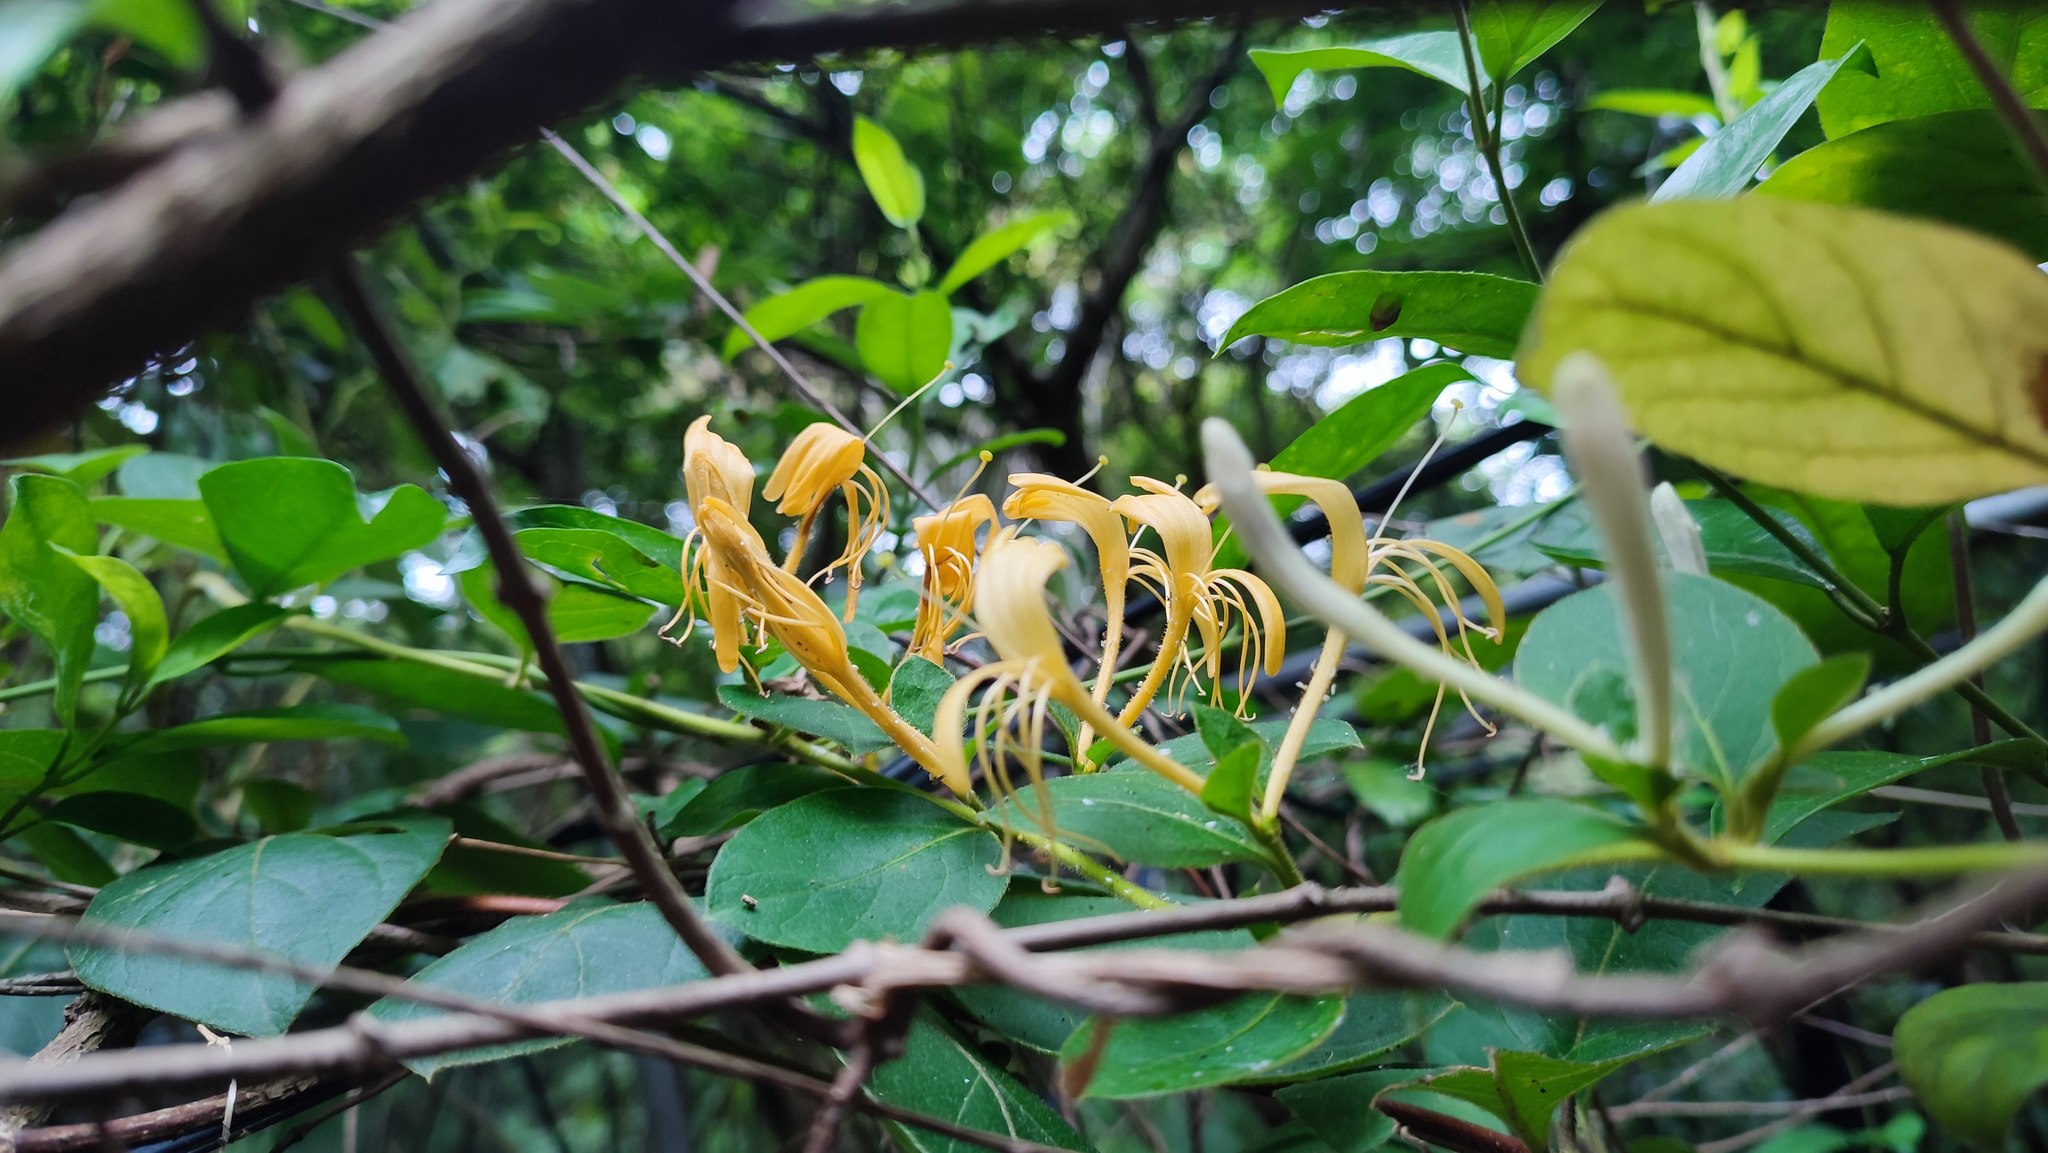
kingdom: Plantae
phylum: Tracheophyta
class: Magnoliopsida
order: Dipsacales
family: Caprifoliaceae
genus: Lonicera
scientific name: Lonicera japonica
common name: Japanese honeysuckle
